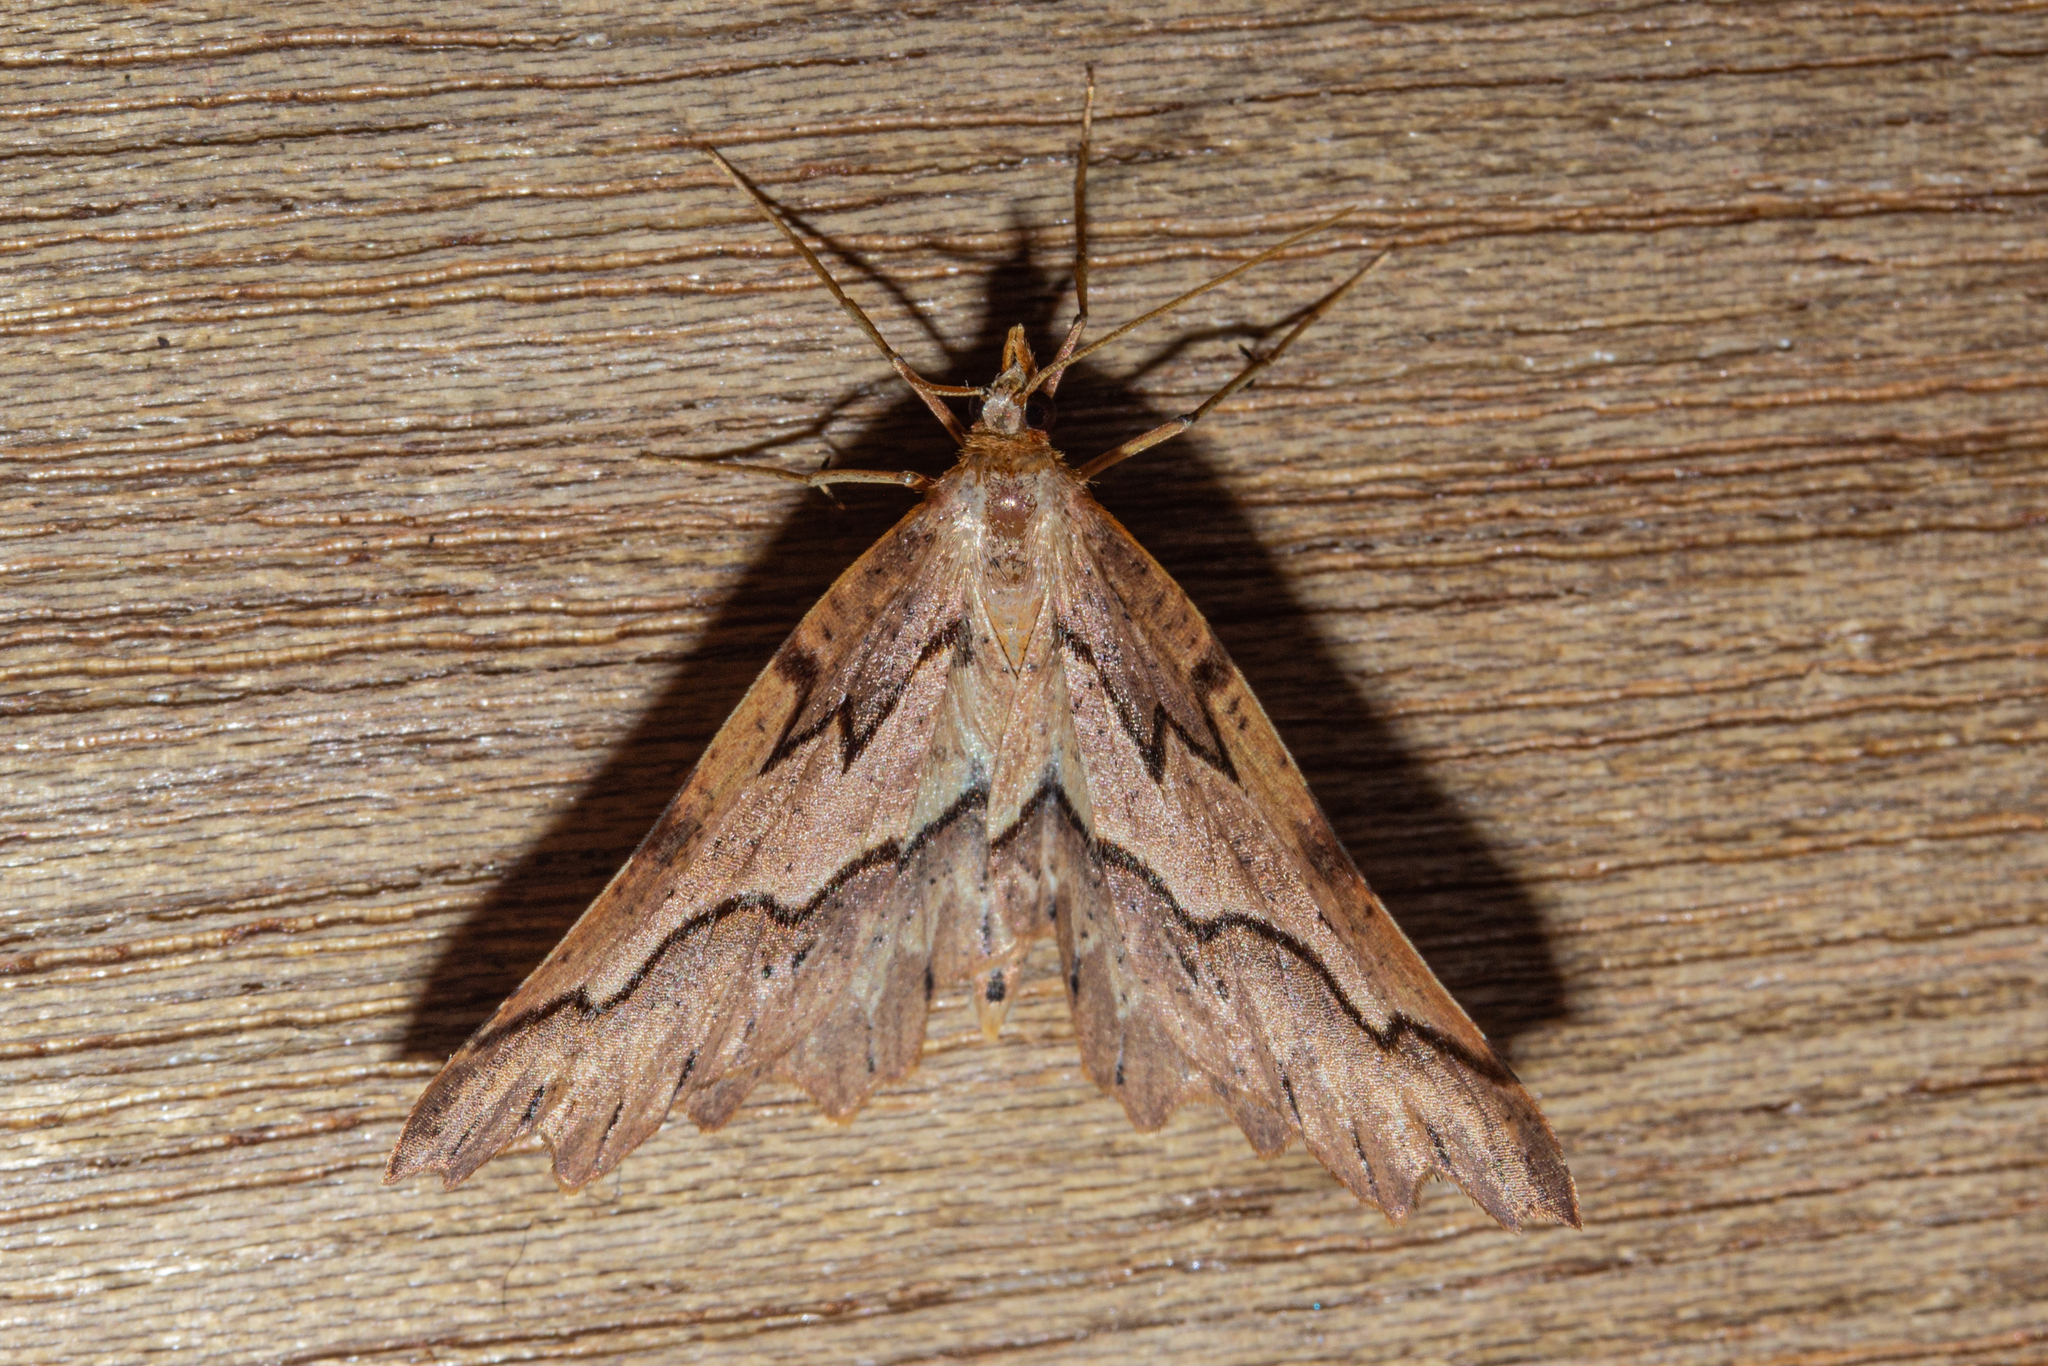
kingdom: Animalia
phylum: Arthropoda
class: Insecta
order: Lepidoptera
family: Geometridae
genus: Ischalis
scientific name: Ischalis fortinata
